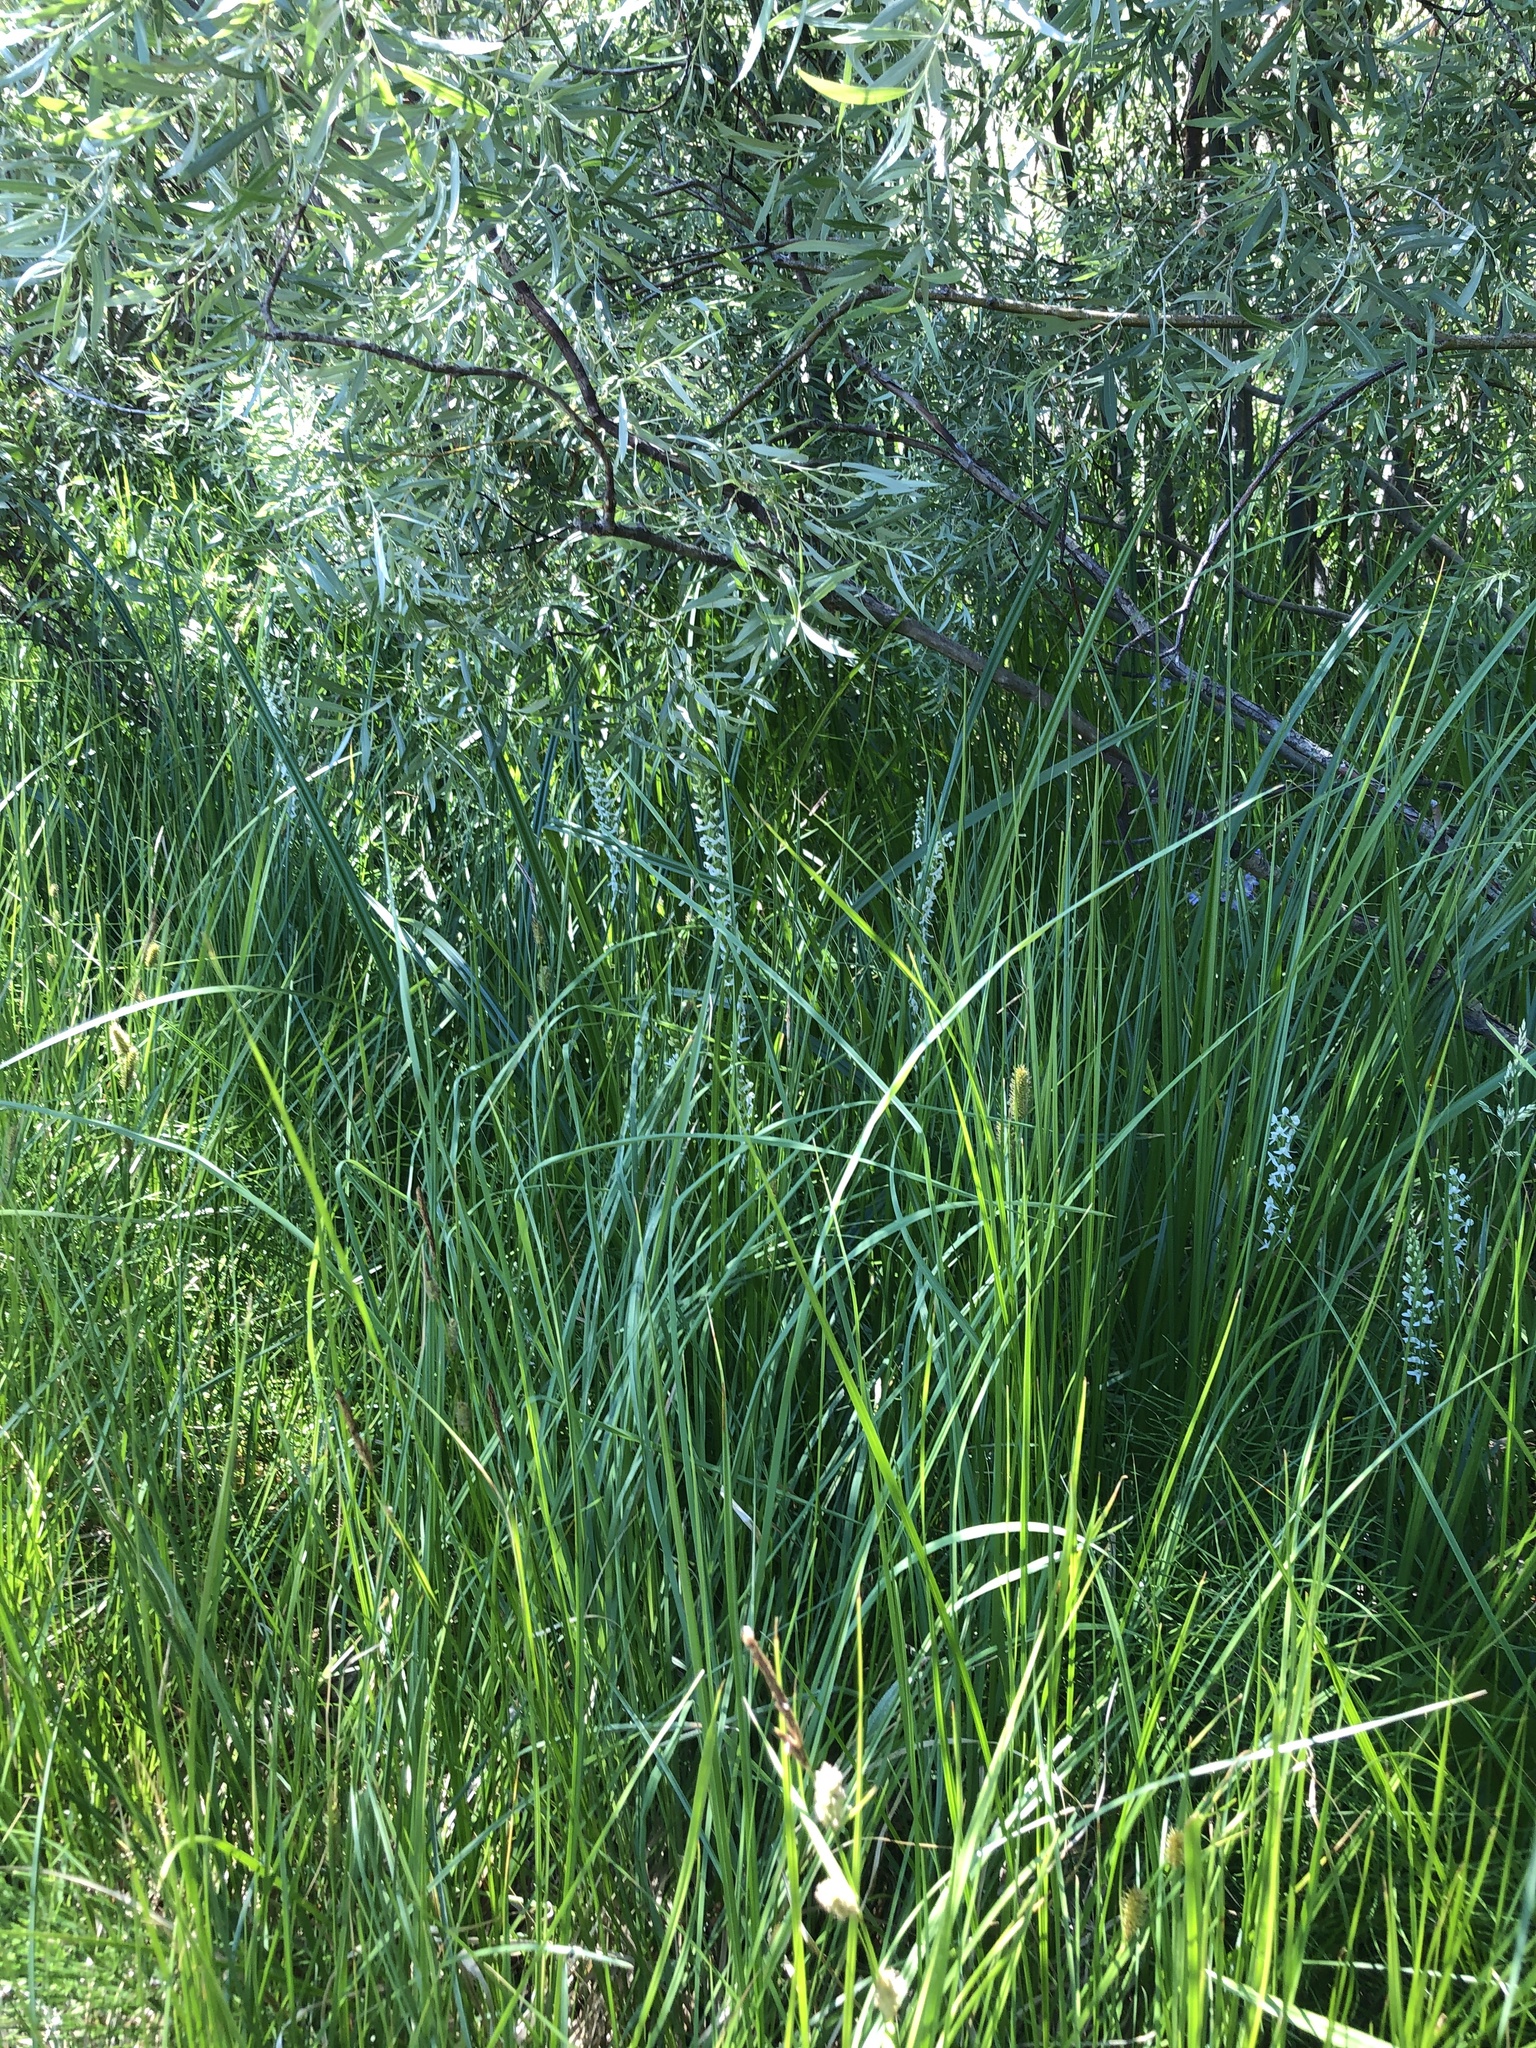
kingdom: Plantae
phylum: Tracheophyta
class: Liliopsida
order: Asparagales
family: Orchidaceae
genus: Platanthera
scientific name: Platanthera dilatata
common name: Bog candles
